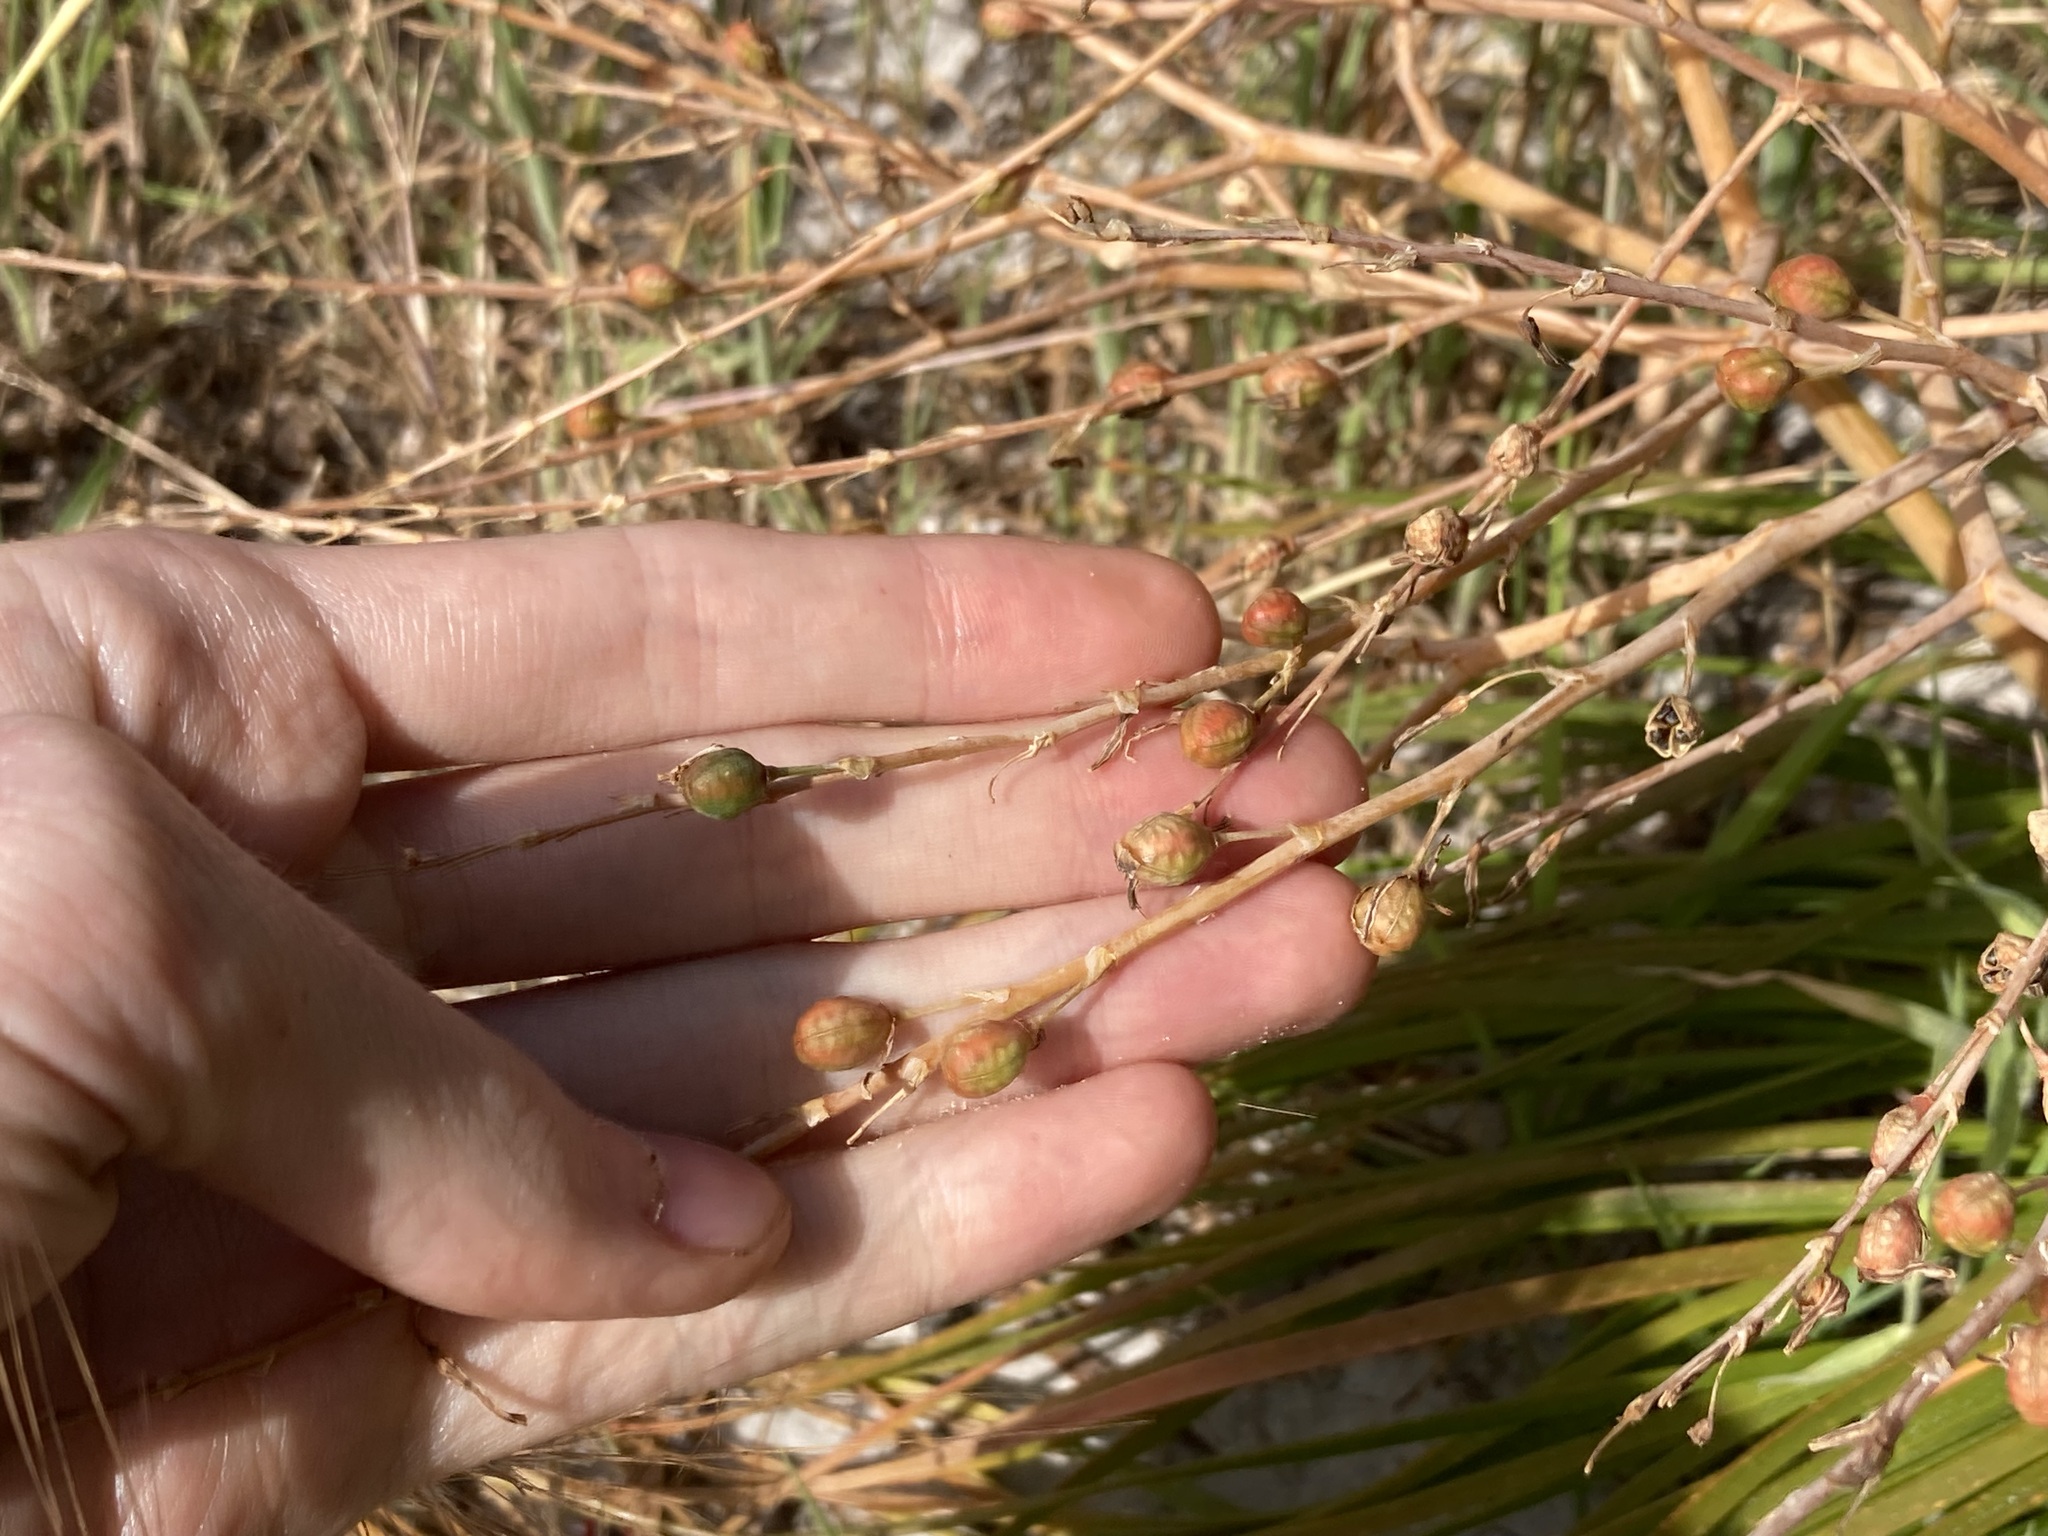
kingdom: Plantae
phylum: Tracheophyta
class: Liliopsida
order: Asparagales
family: Asphodelaceae
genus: Trachyandra
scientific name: Trachyandra divaricata
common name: Dune onionweed
